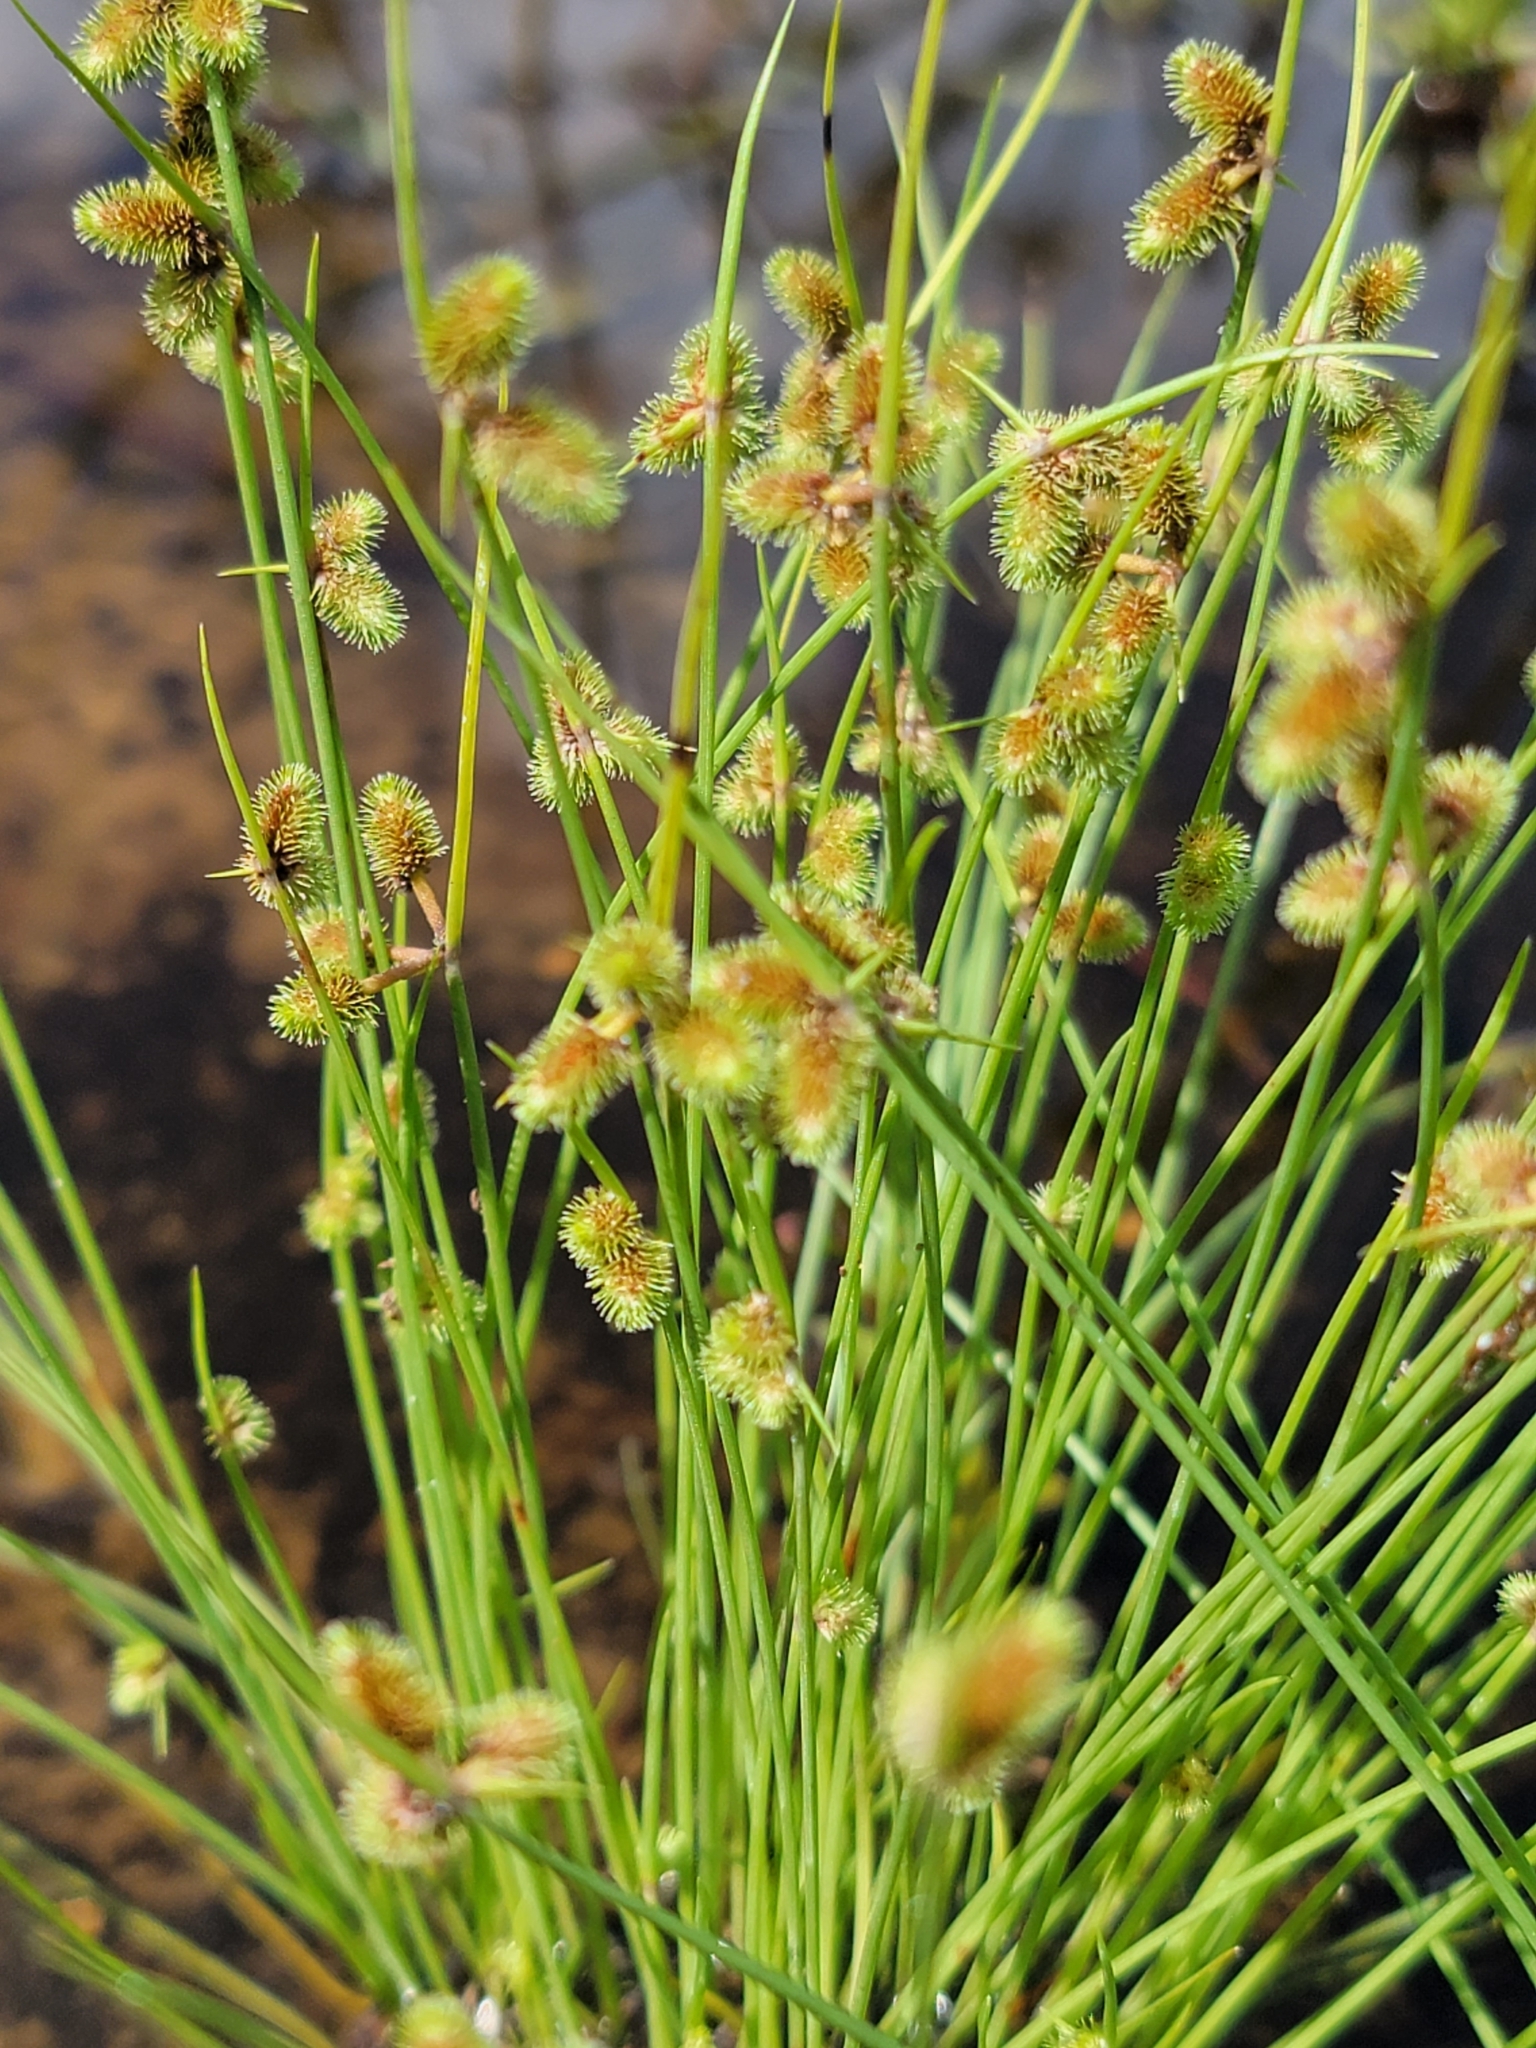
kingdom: Plantae
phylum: Tracheophyta
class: Liliopsida
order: Poales
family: Cyperaceae
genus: Cyperus
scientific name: Cyperus neochinensis
